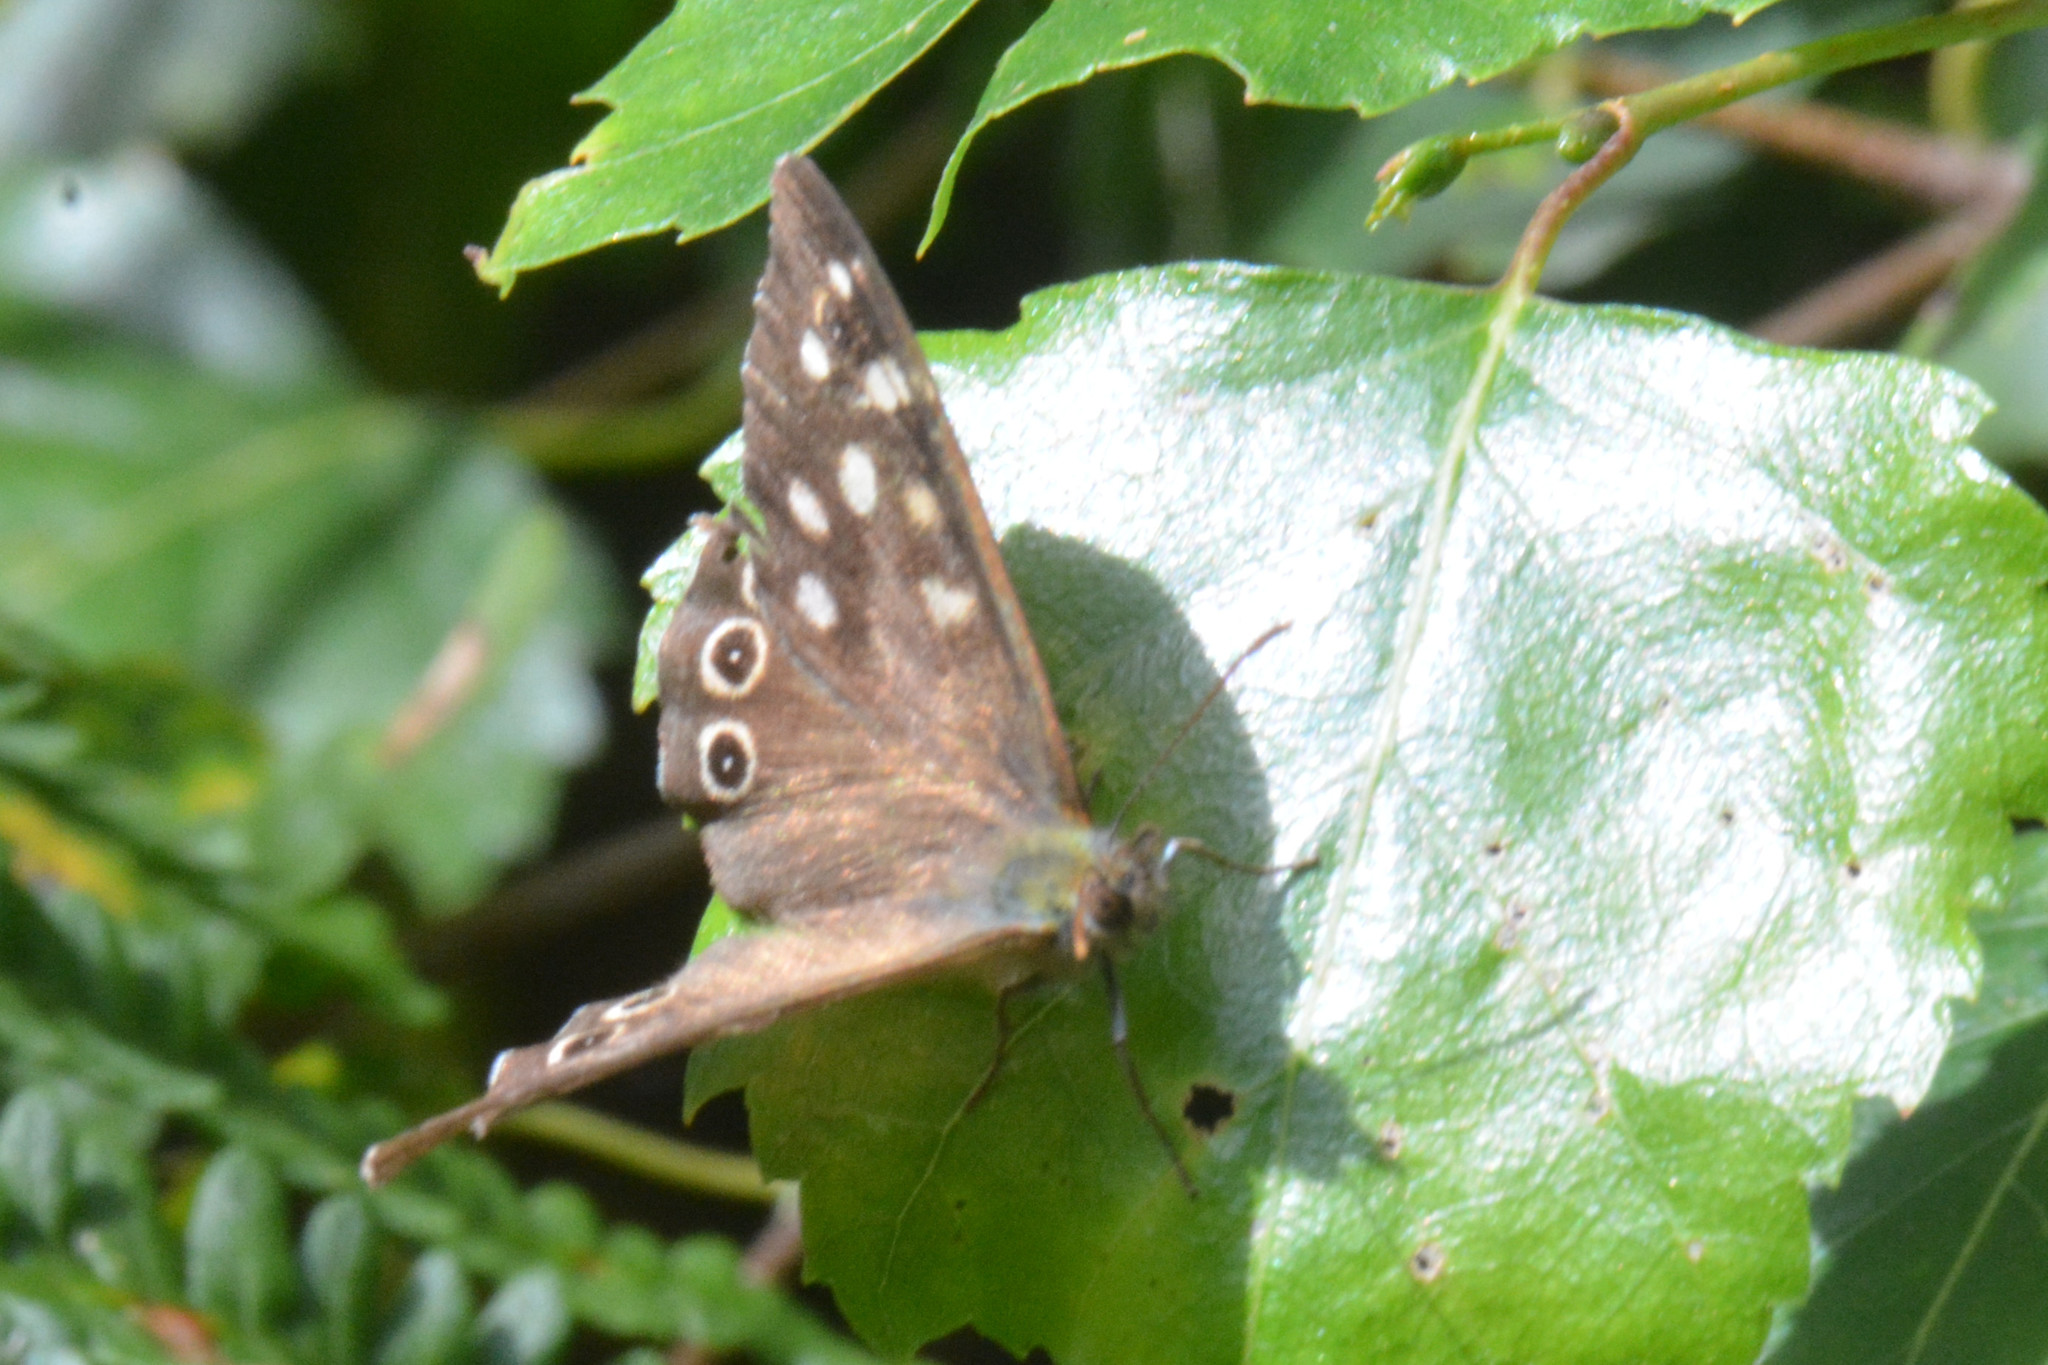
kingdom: Animalia
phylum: Arthropoda
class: Insecta
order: Lepidoptera
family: Nymphalidae
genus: Pararge
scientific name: Pararge aegeria
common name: Speckled wood
